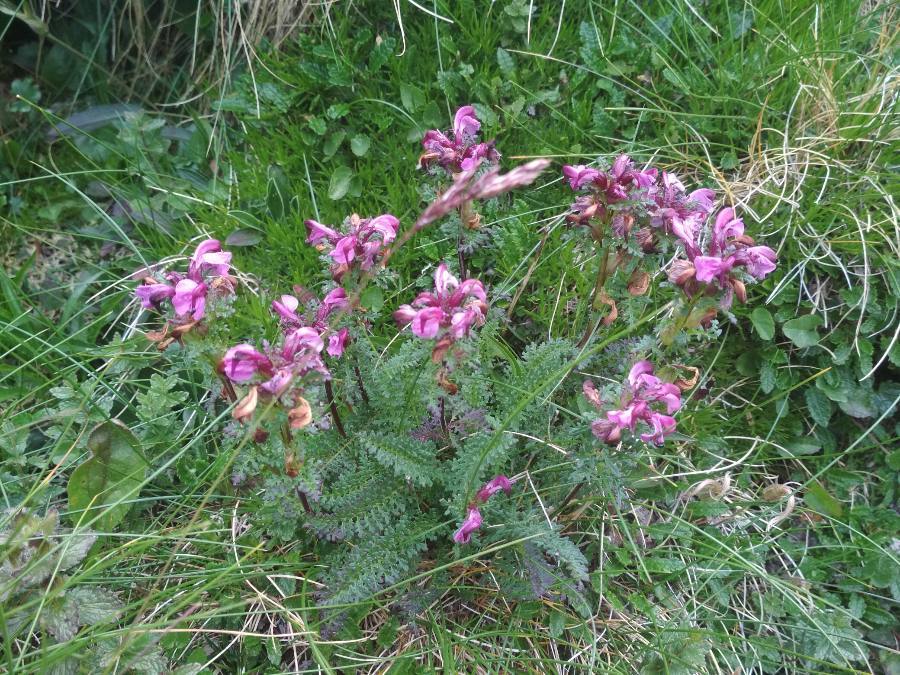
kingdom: Plantae
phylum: Tracheophyta
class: Magnoliopsida
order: Lamiales
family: Orobanchaceae
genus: Pedicularis
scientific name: Pedicularis rostratocapitata
